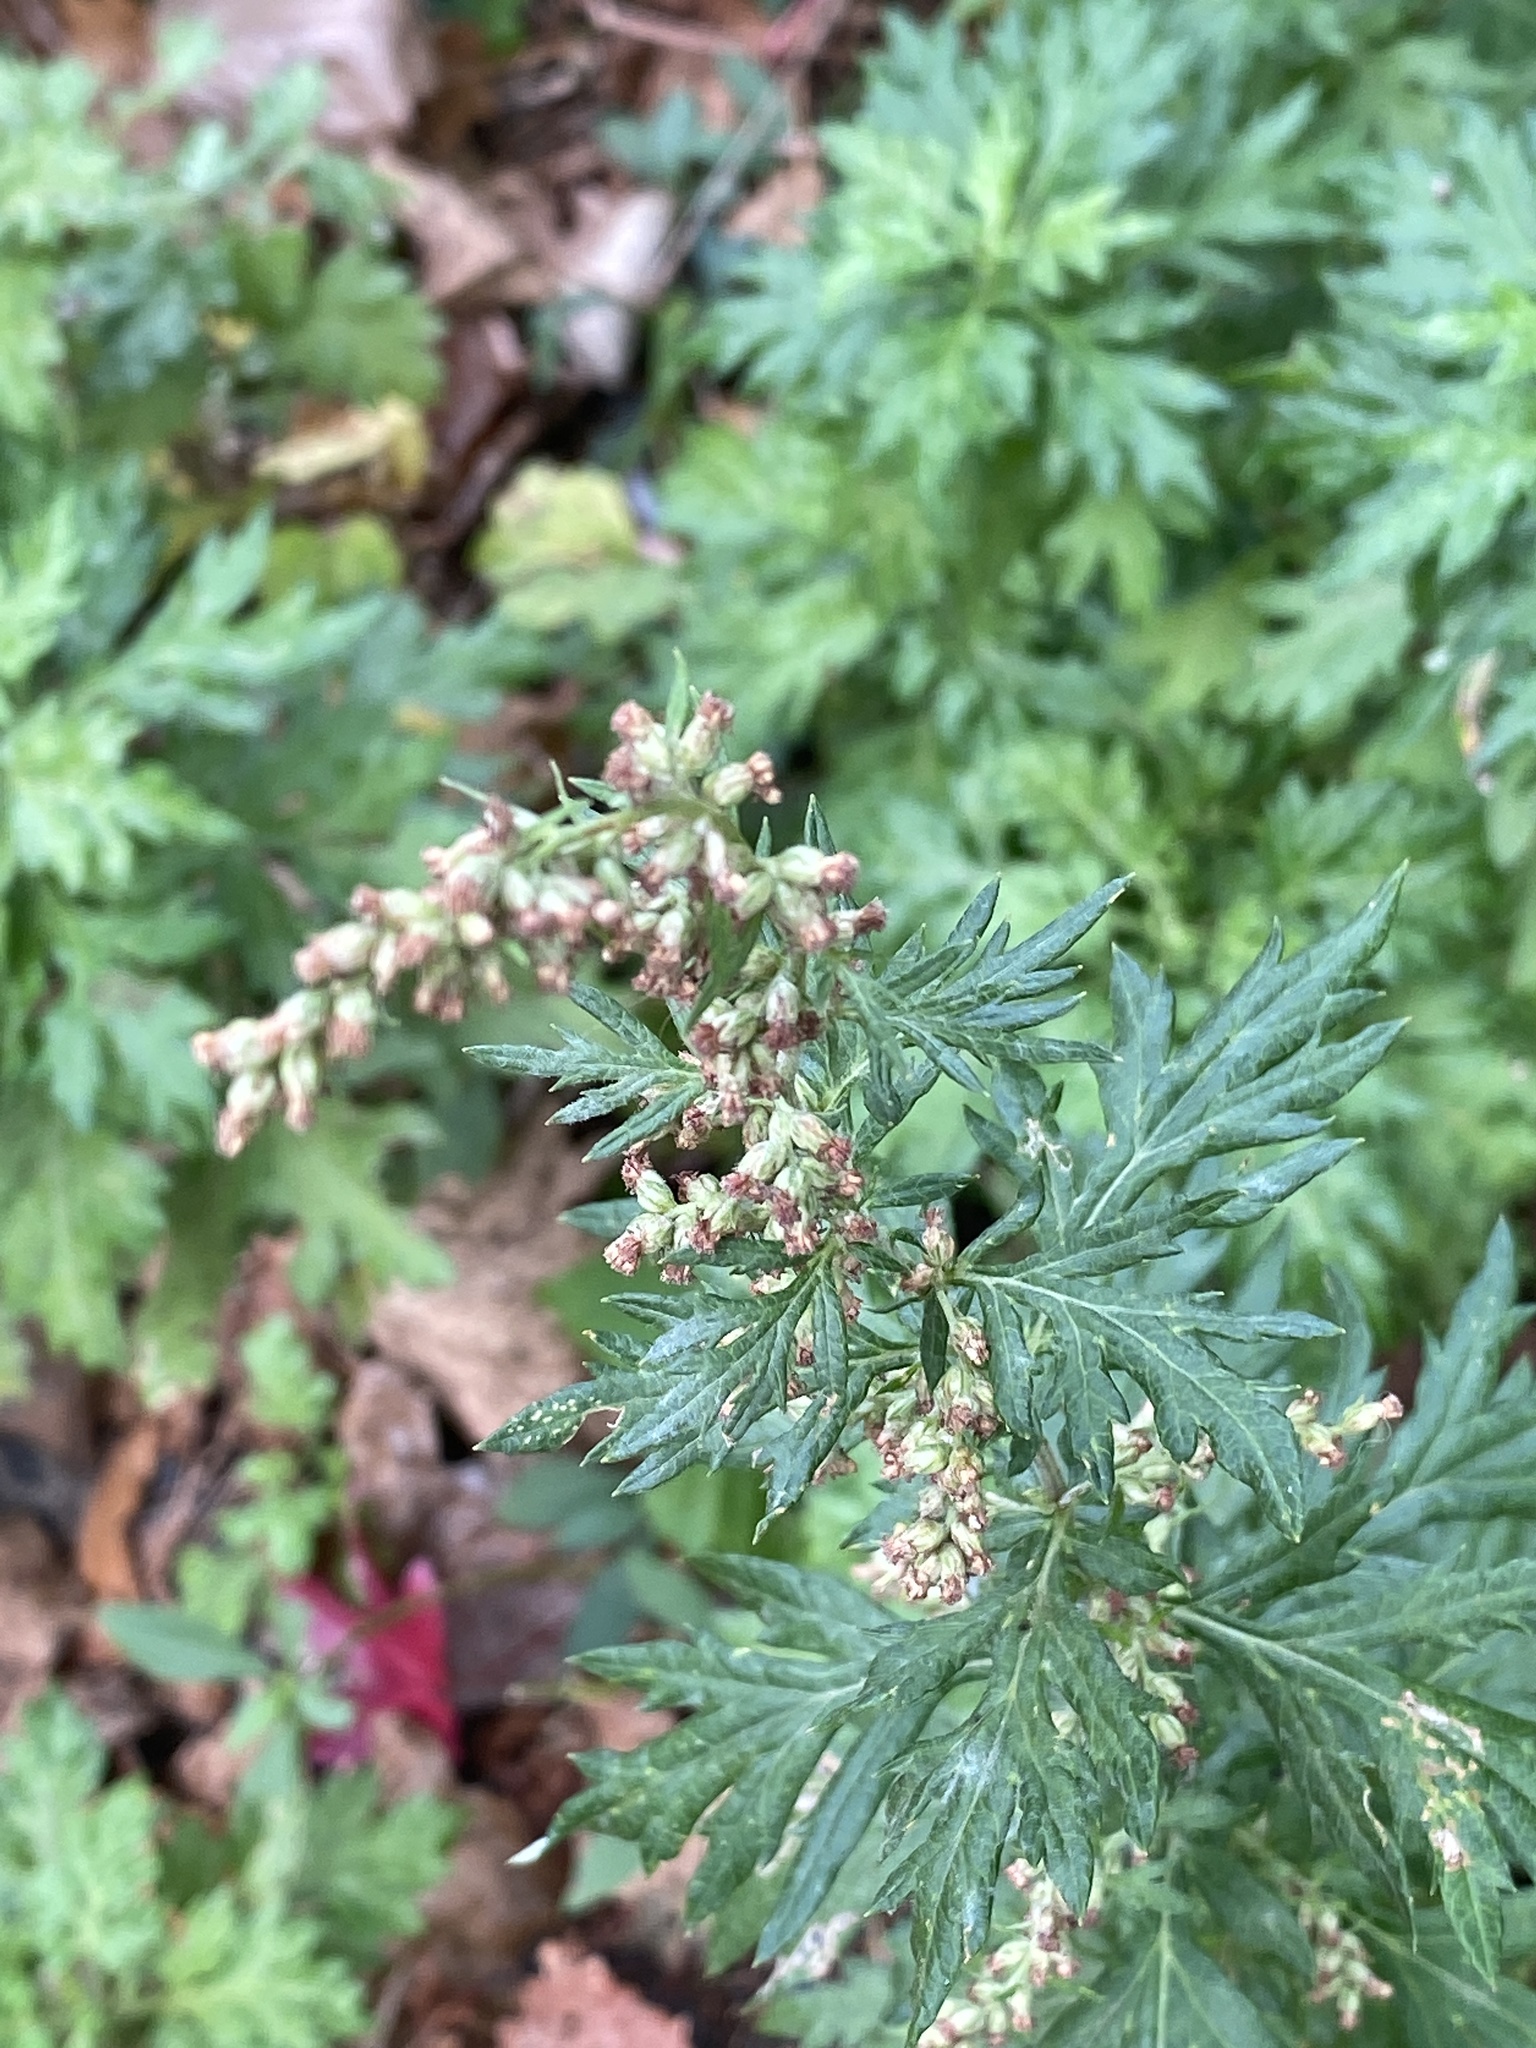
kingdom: Plantae
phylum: Tracheophyta
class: Magnoliopsida
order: Asterales
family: Asteraceae
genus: Artemisia
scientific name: Artemisia vulgaris
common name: Mugwort
